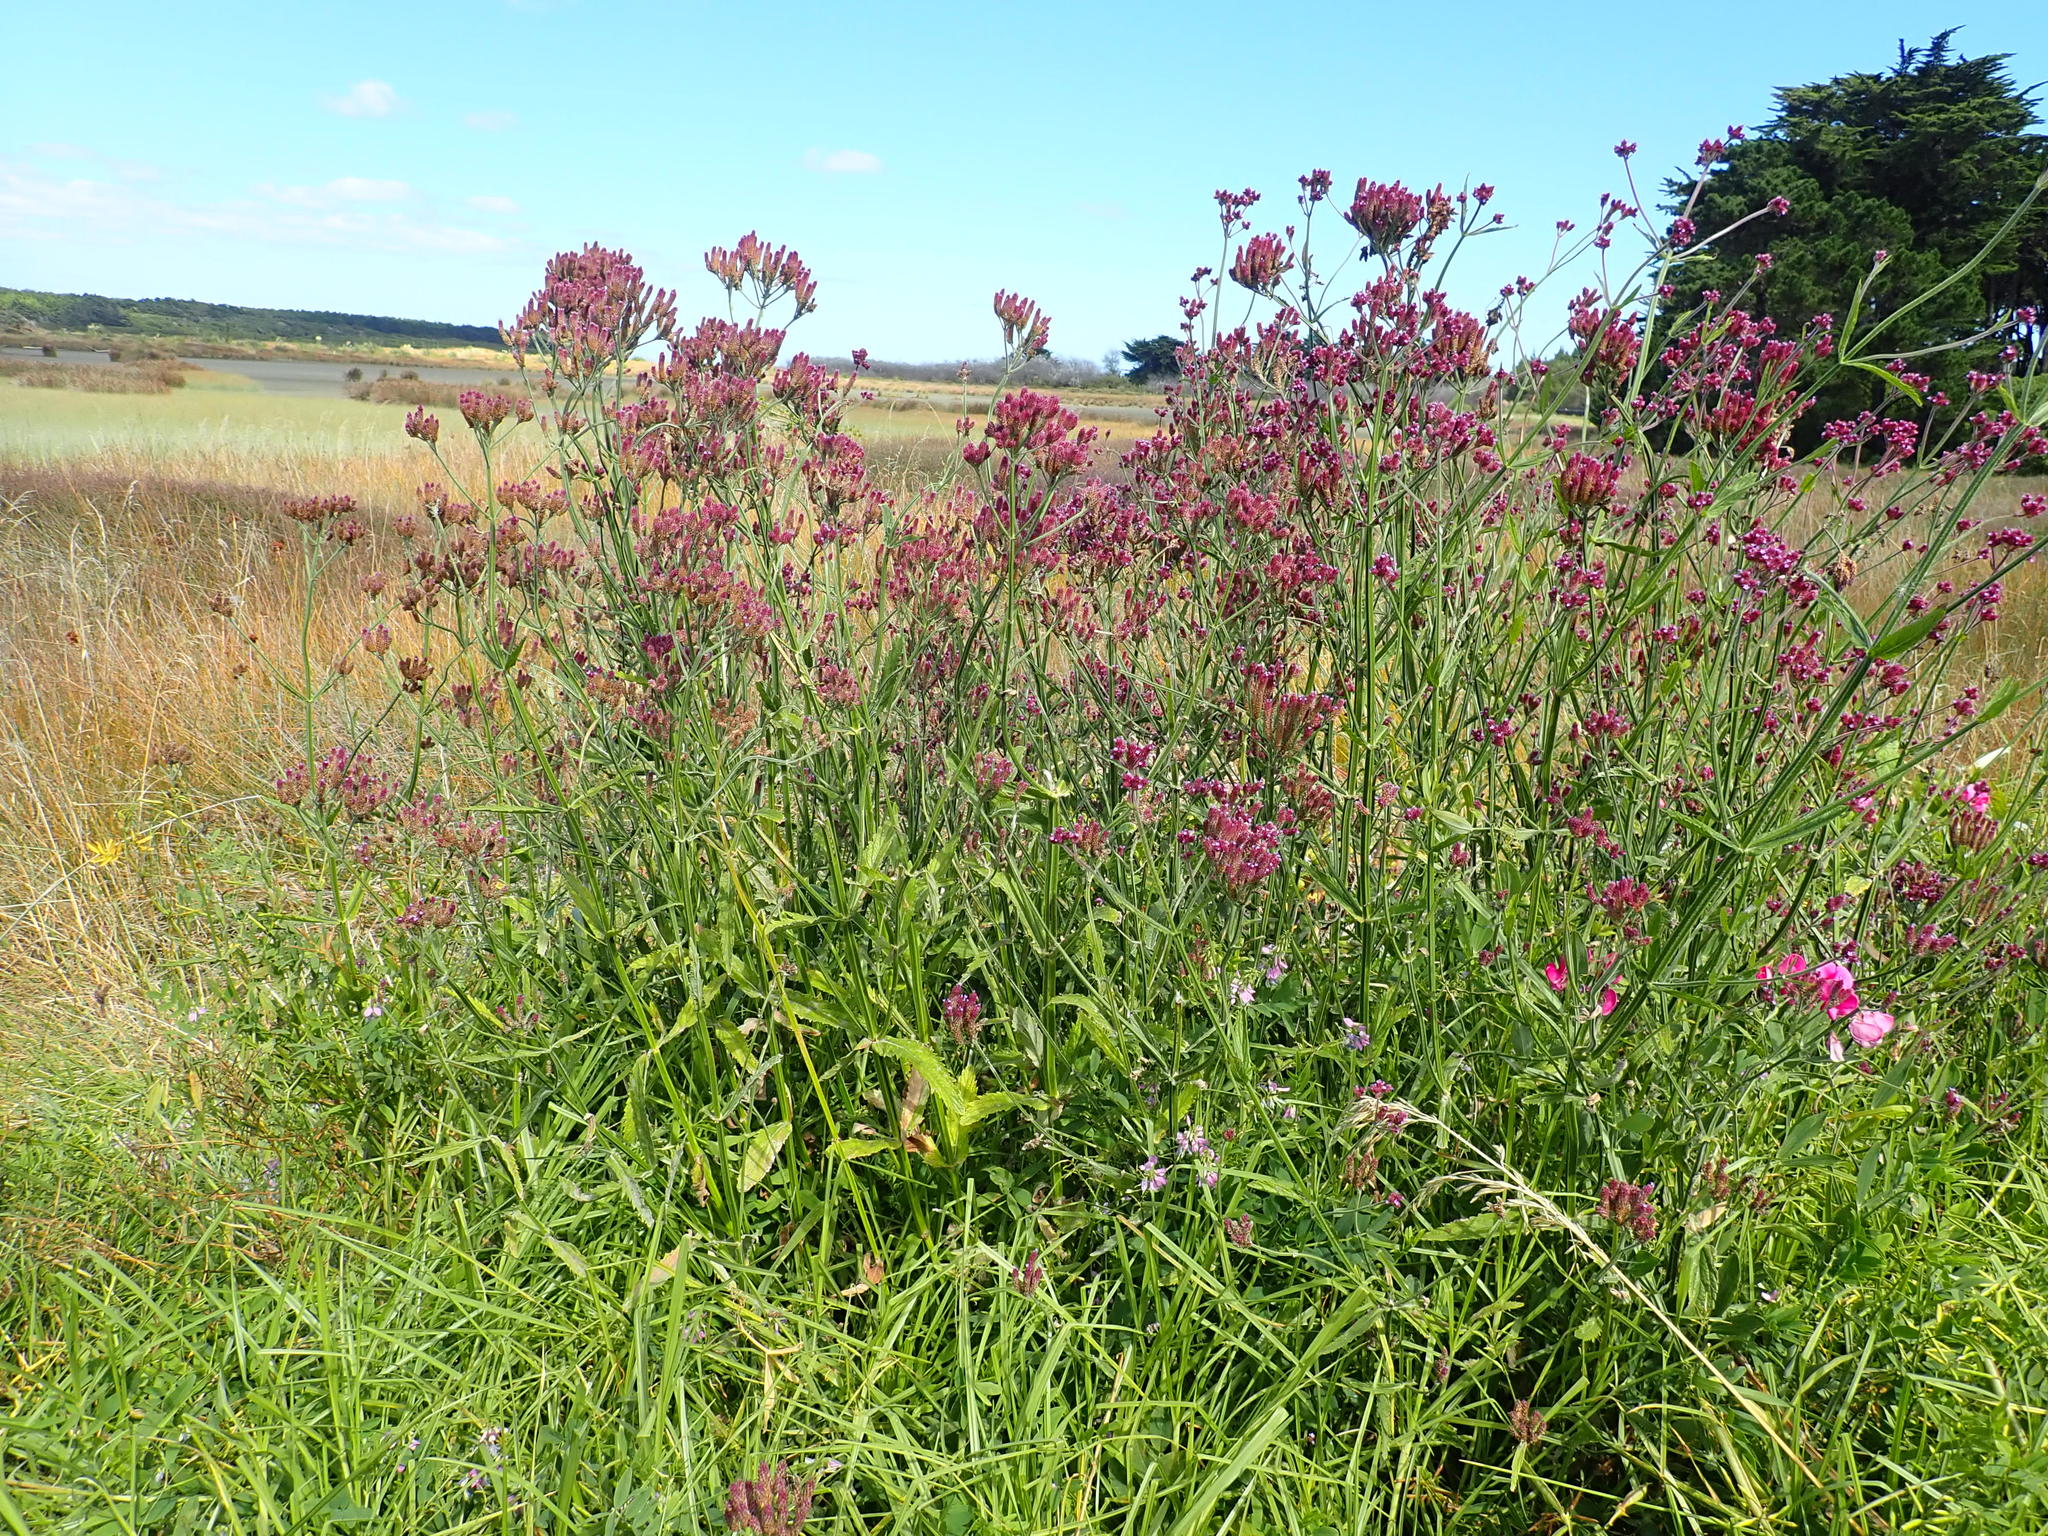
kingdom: Plantae
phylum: Tracheophyta
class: Magnoliopsida
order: Lamiales
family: Verbenaceae
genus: Verbena
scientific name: Verbena incompta
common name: Purpletop vervain
